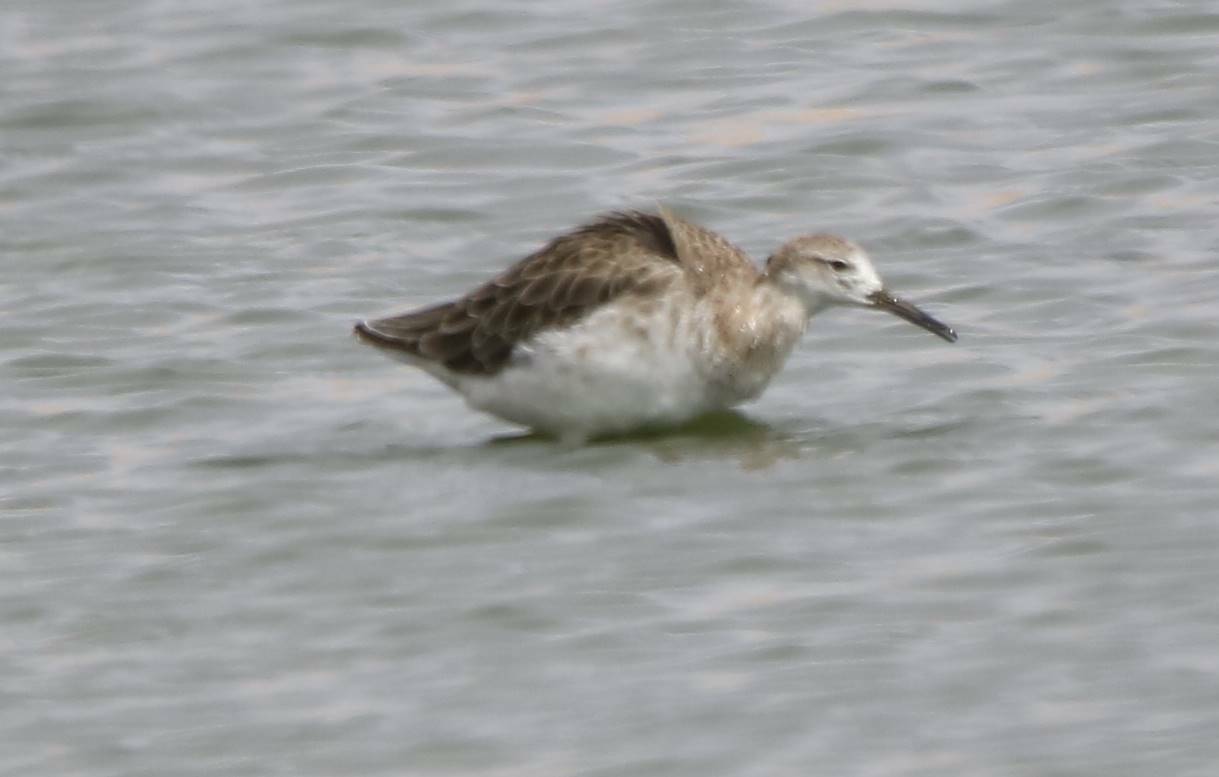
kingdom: Animalia
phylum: Chordata
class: Aves
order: Charadriiformes
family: Scolopacidae
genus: Calidris
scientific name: Calidris pugnax
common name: Ruff
